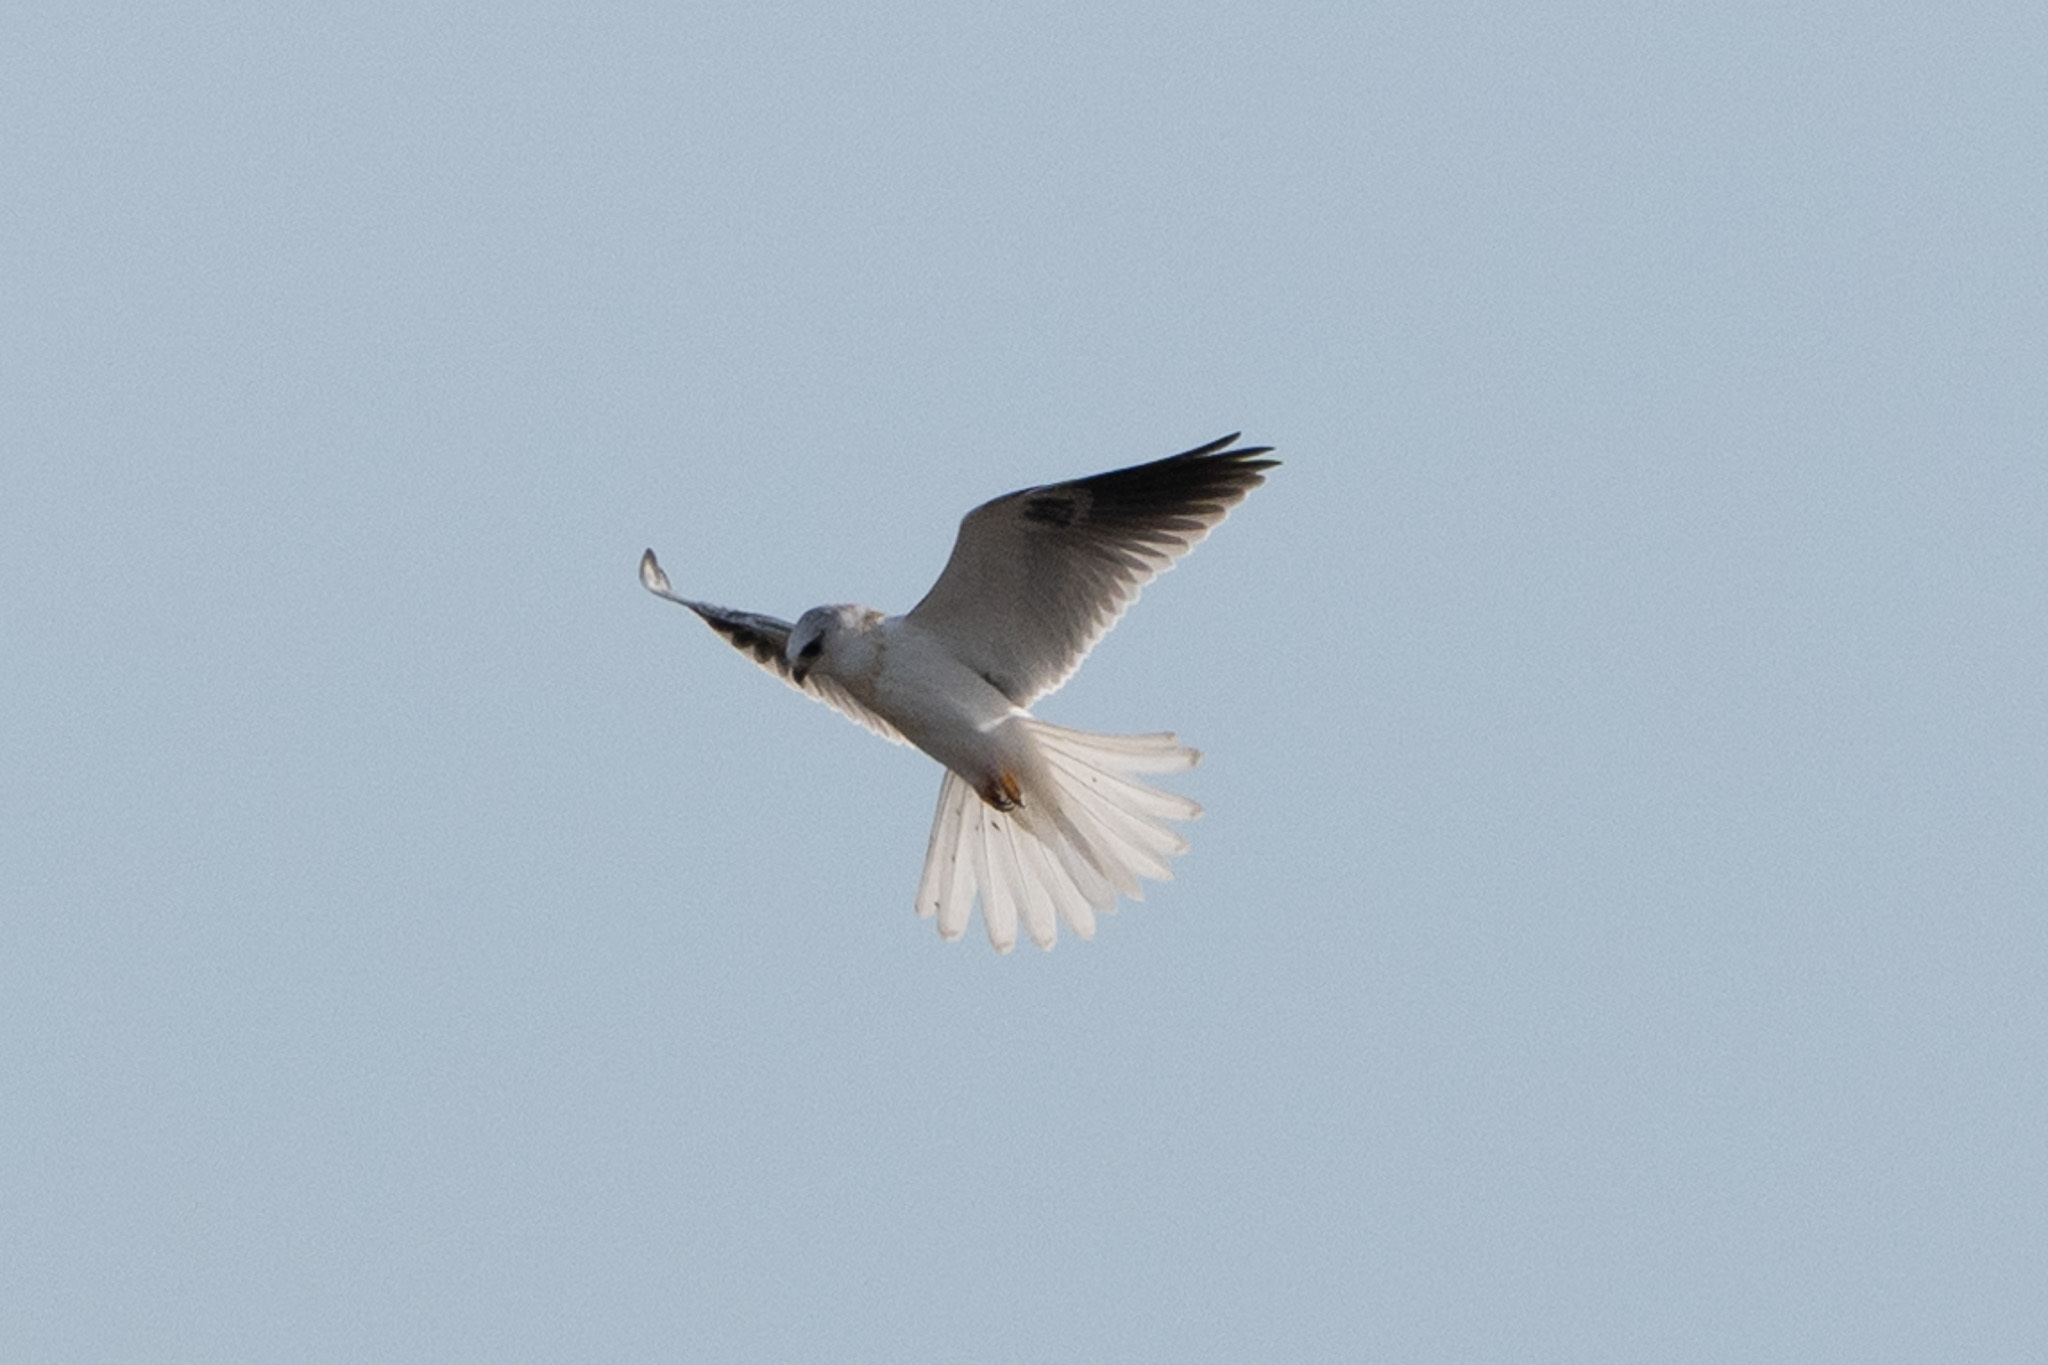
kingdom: Animalia
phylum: Chordata
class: Aves
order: Accipitriformes
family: Accipitridae
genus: Elanus
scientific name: Elanus leucurus
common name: White-tailed kite
